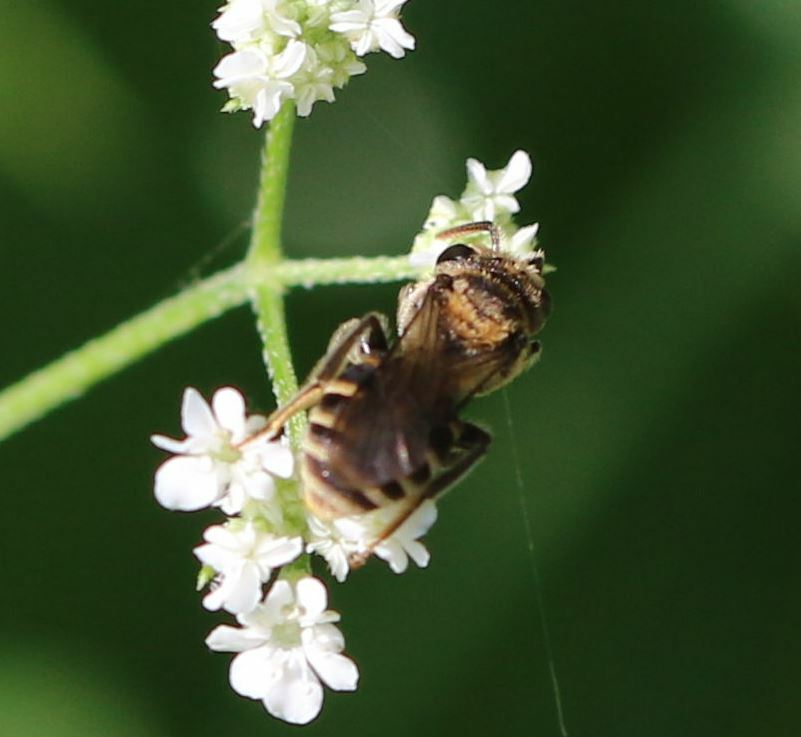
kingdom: Animalia
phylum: Arthropoda
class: Insecta
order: Hymenoptera
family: Andrenidae
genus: Andrena
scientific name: Andrena colletiformis
